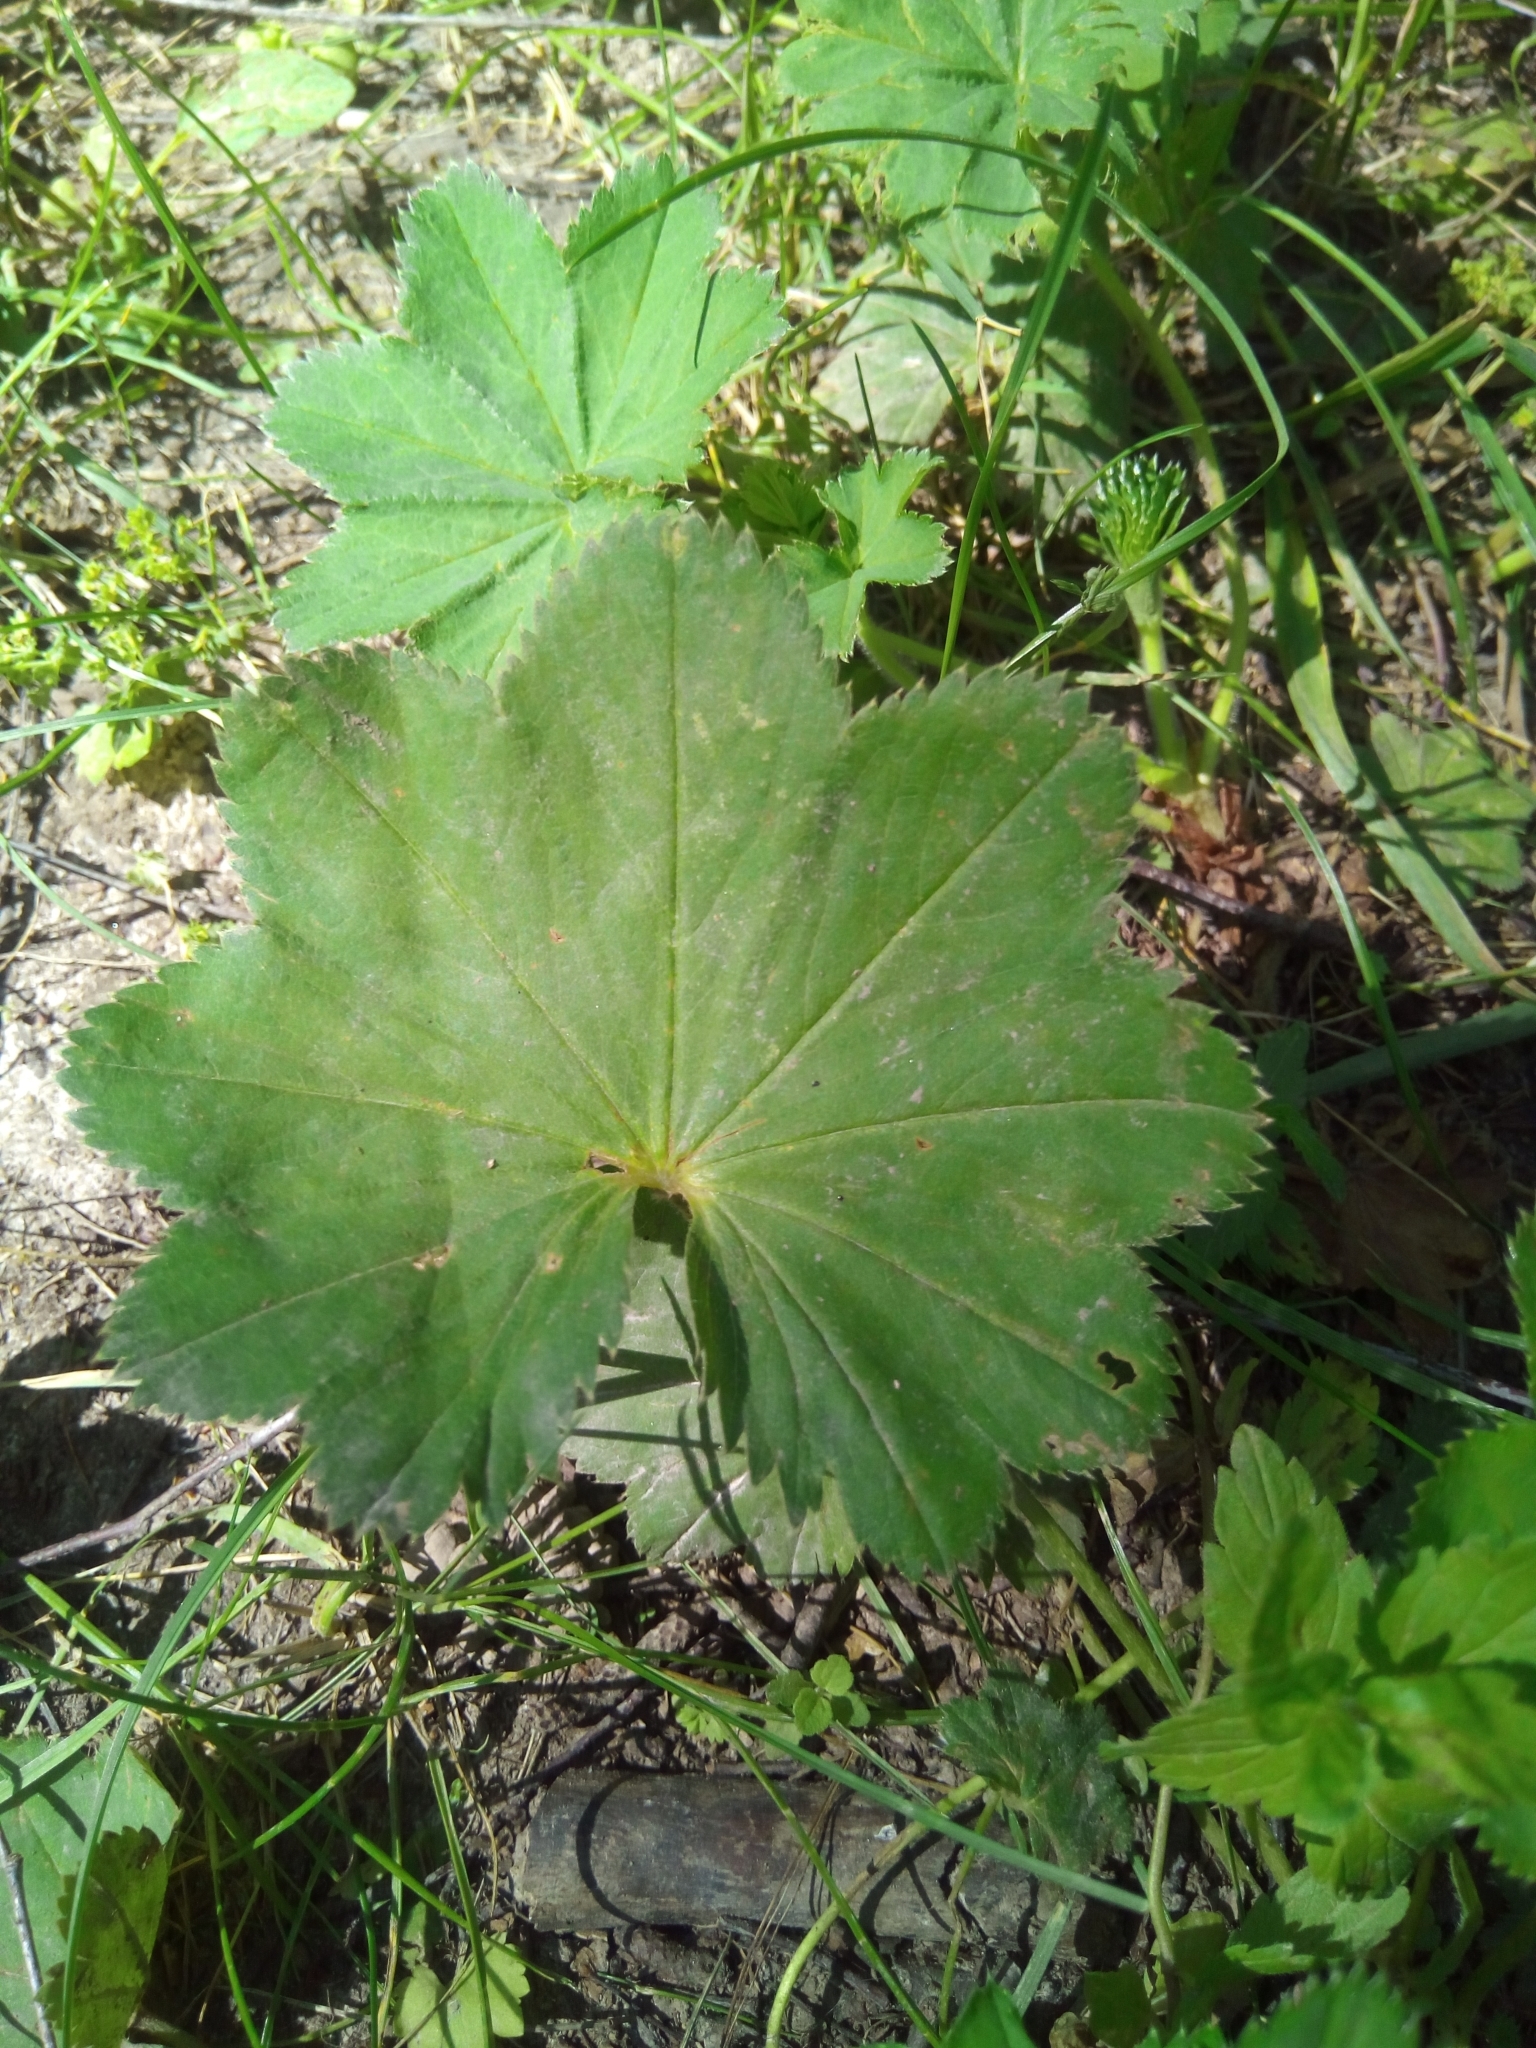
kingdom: Plantae
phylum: Tracheophyta
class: Magnoliopsida
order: Rosales
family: Rosaceae
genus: Alchemilla
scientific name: Alchemilla
